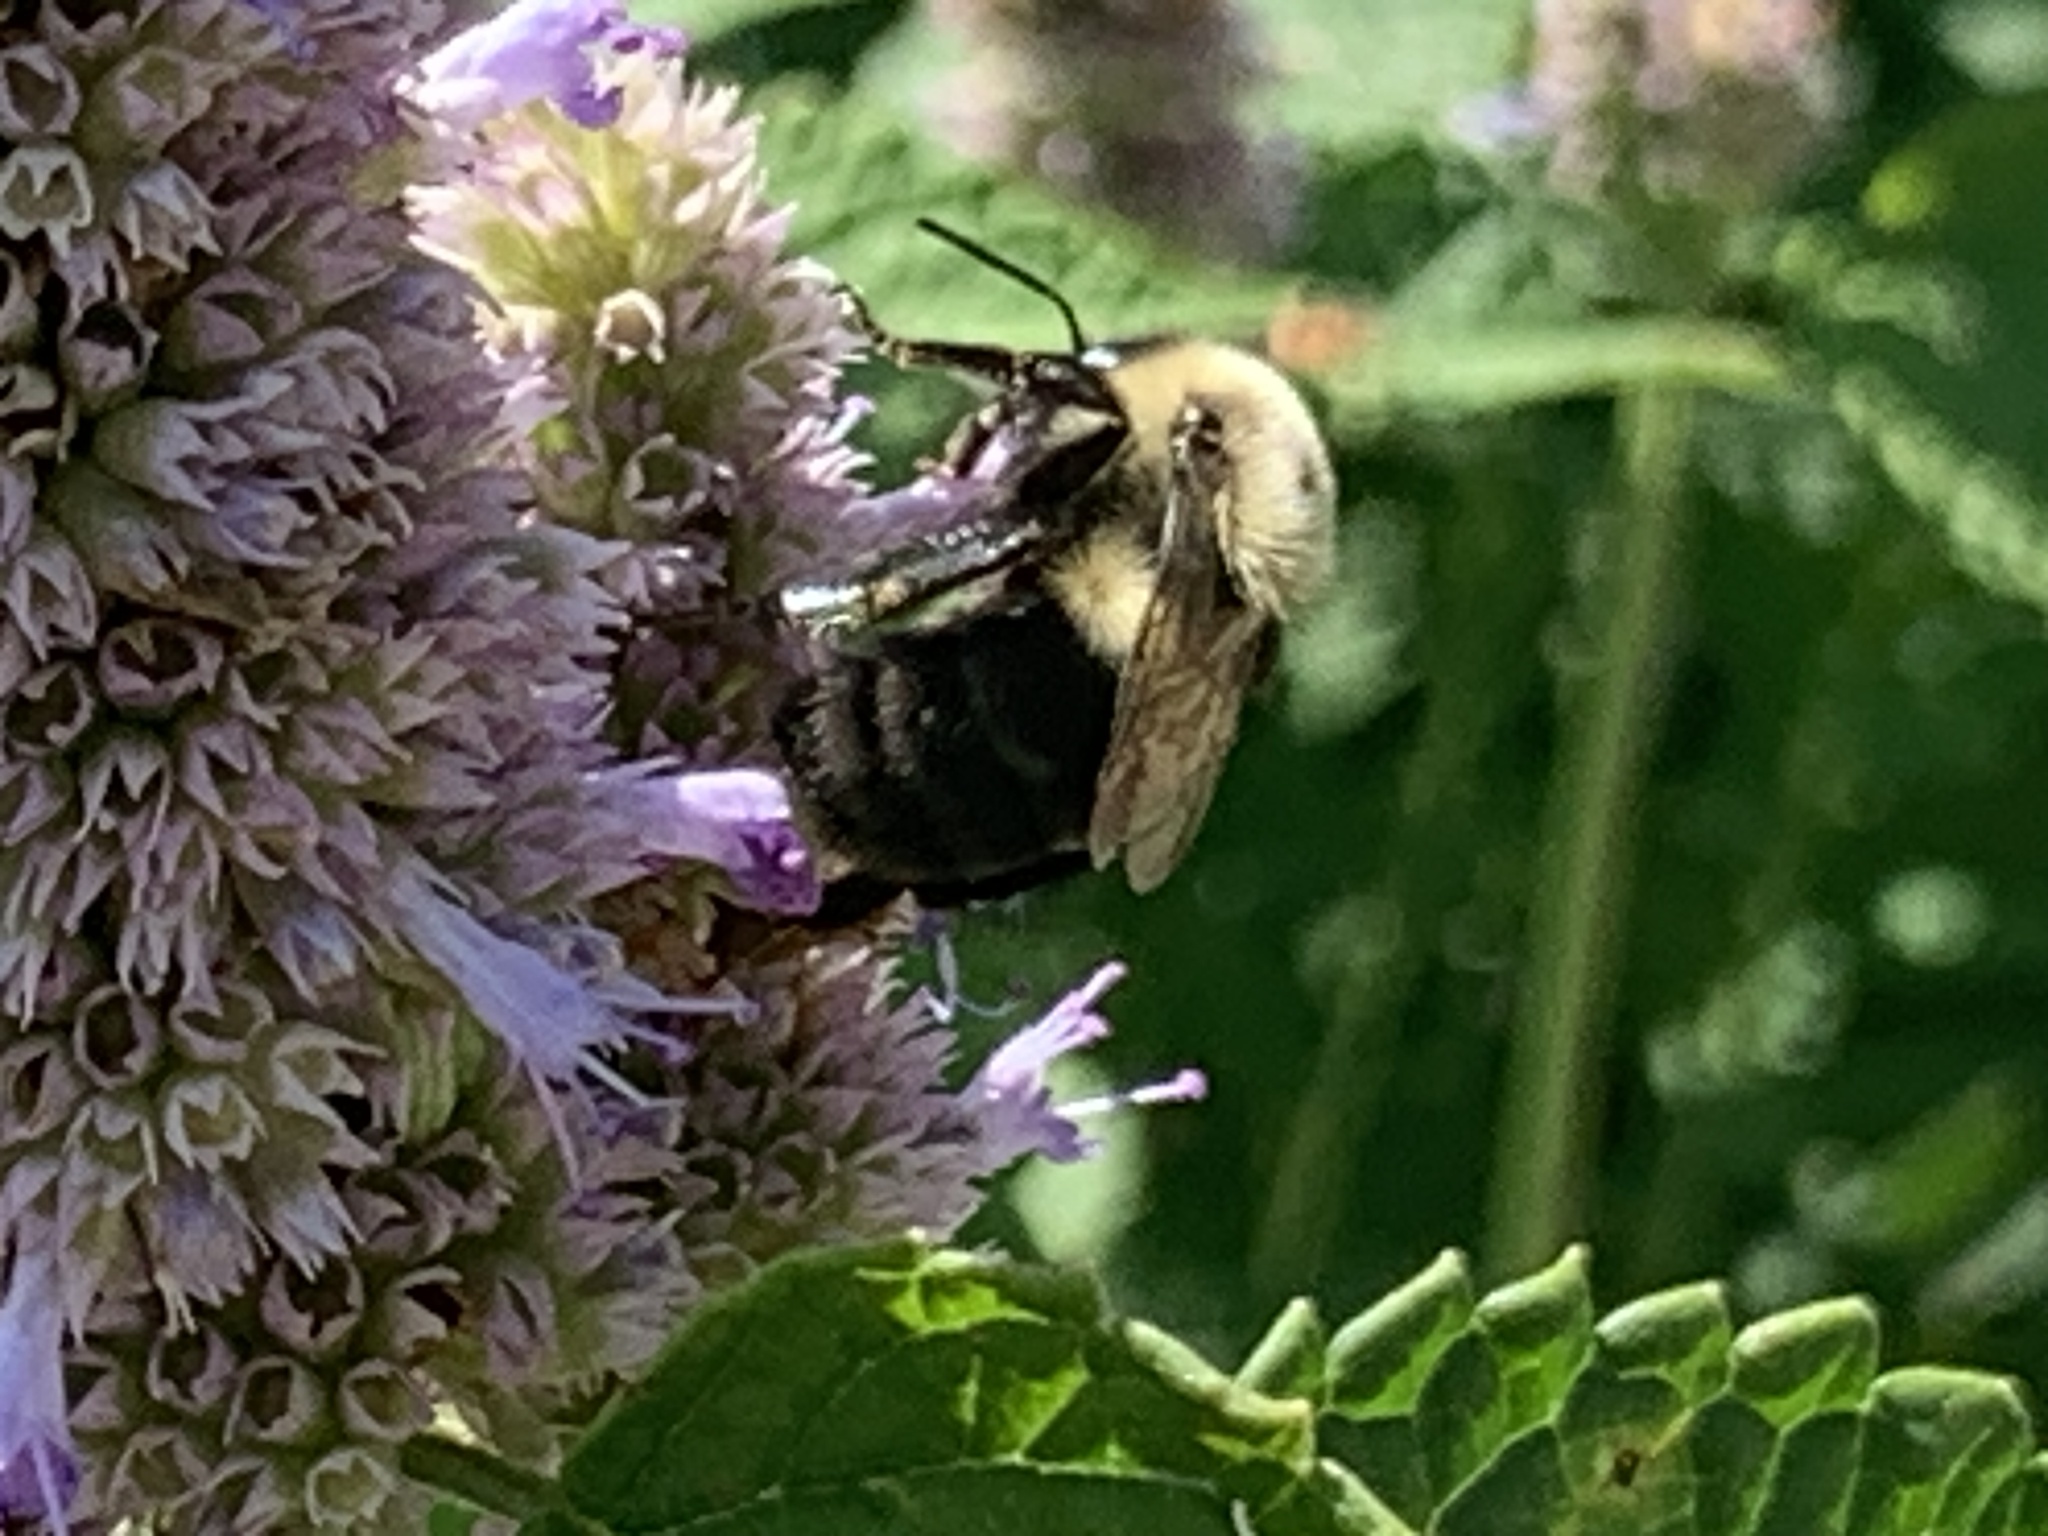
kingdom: Animalia
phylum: Arthropoda
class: Insecta
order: Hymenoptera
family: Apidae
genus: Bombus
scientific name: Bombus impatiens
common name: Common eastern bumble bee
